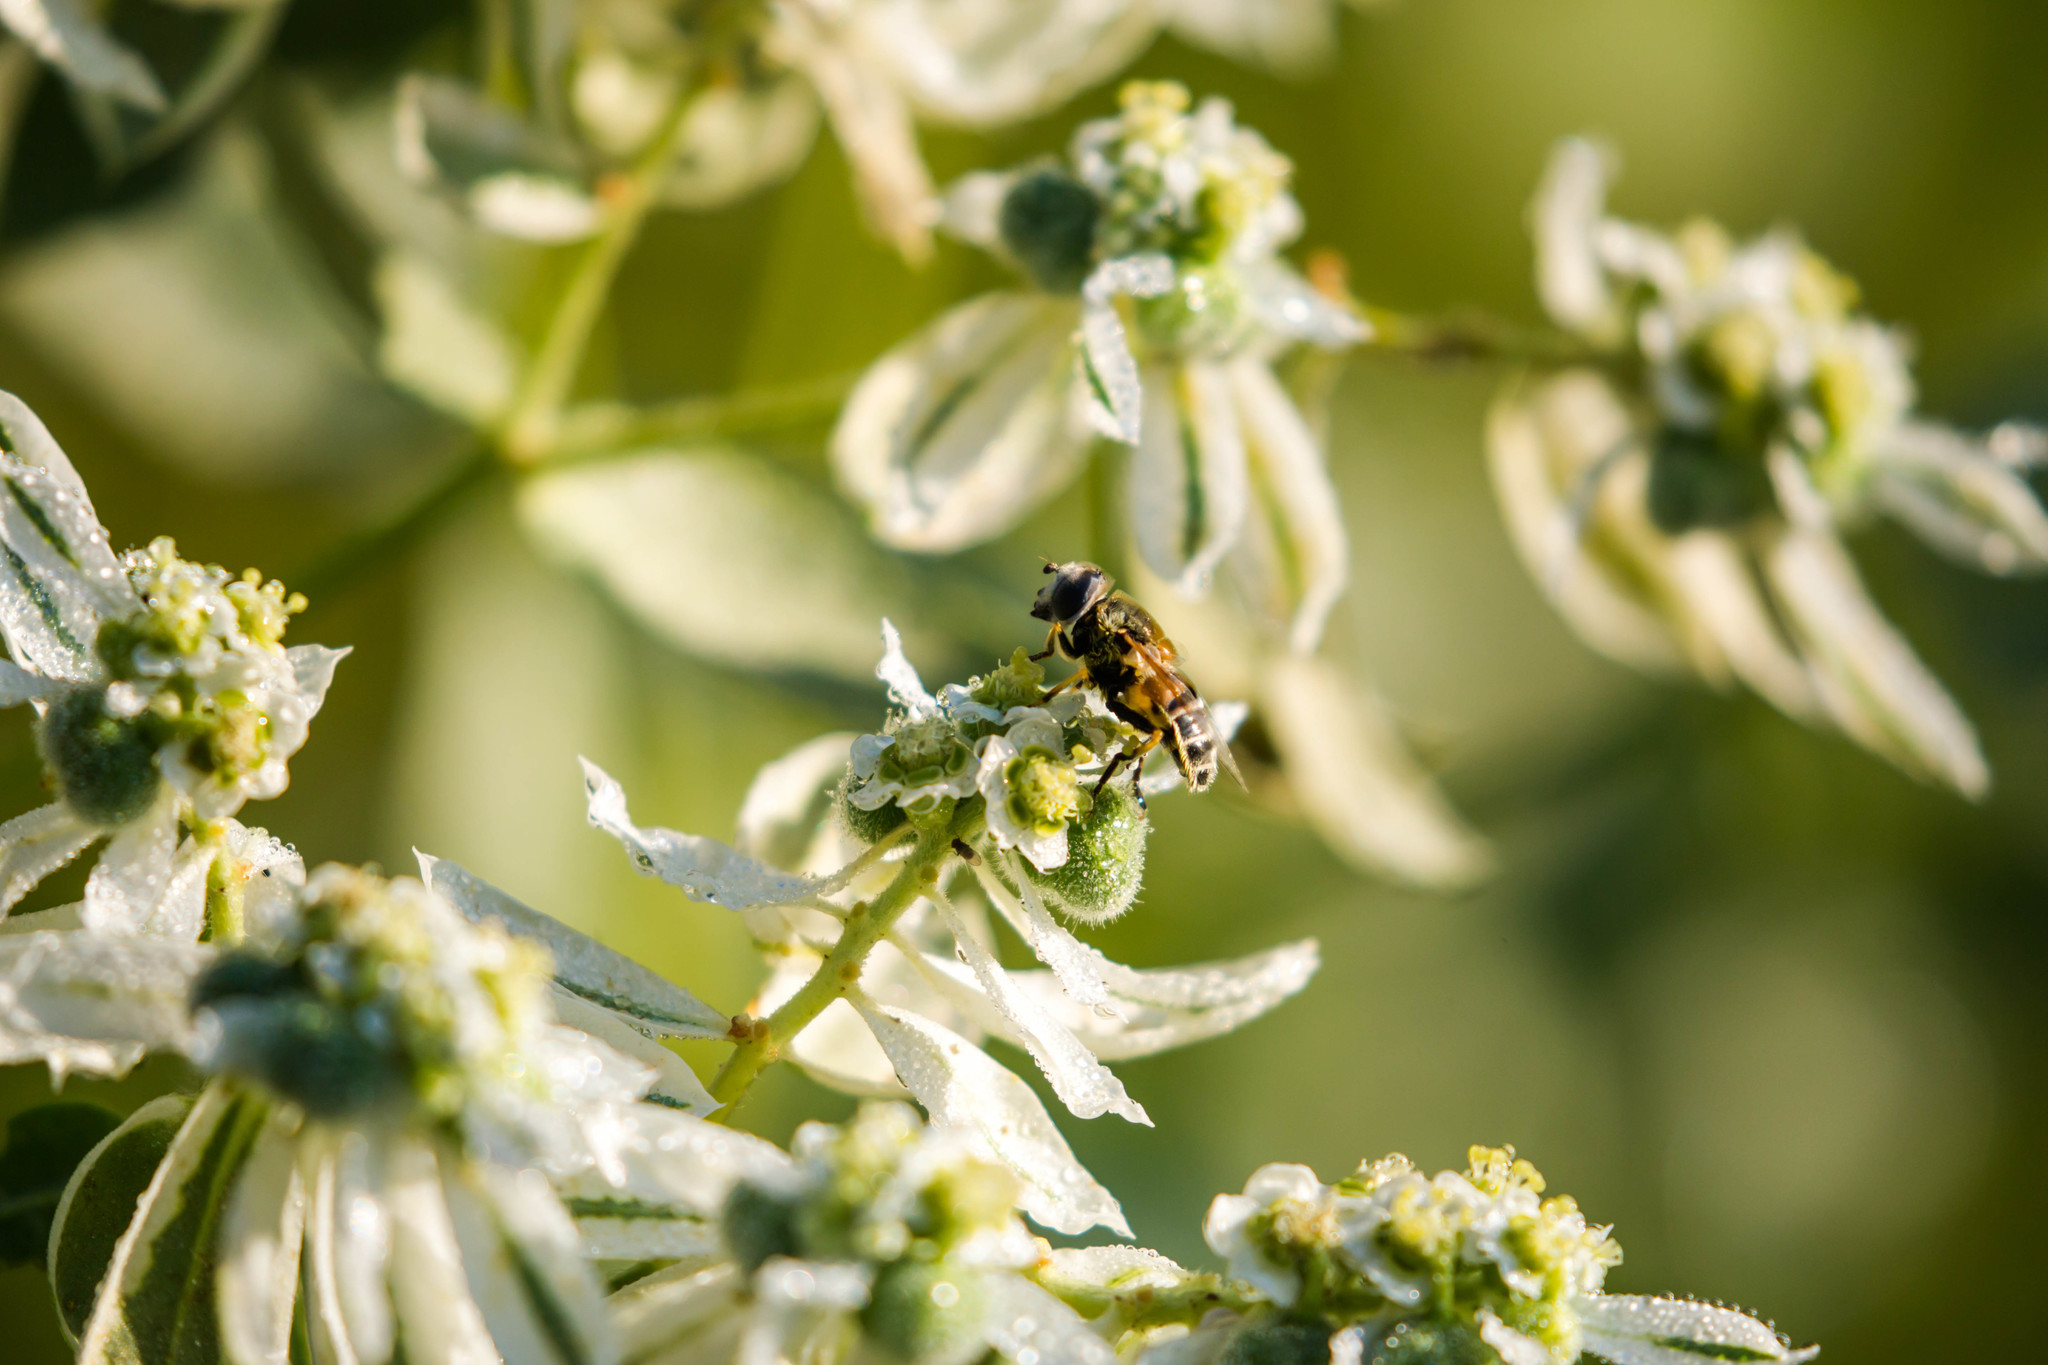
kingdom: Animalia
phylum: Arthropoda
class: Insecta
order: Diptera
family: Syrphidae
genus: Eristalis
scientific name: Eristalis stipator
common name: Yellow-shouldered drone fly
